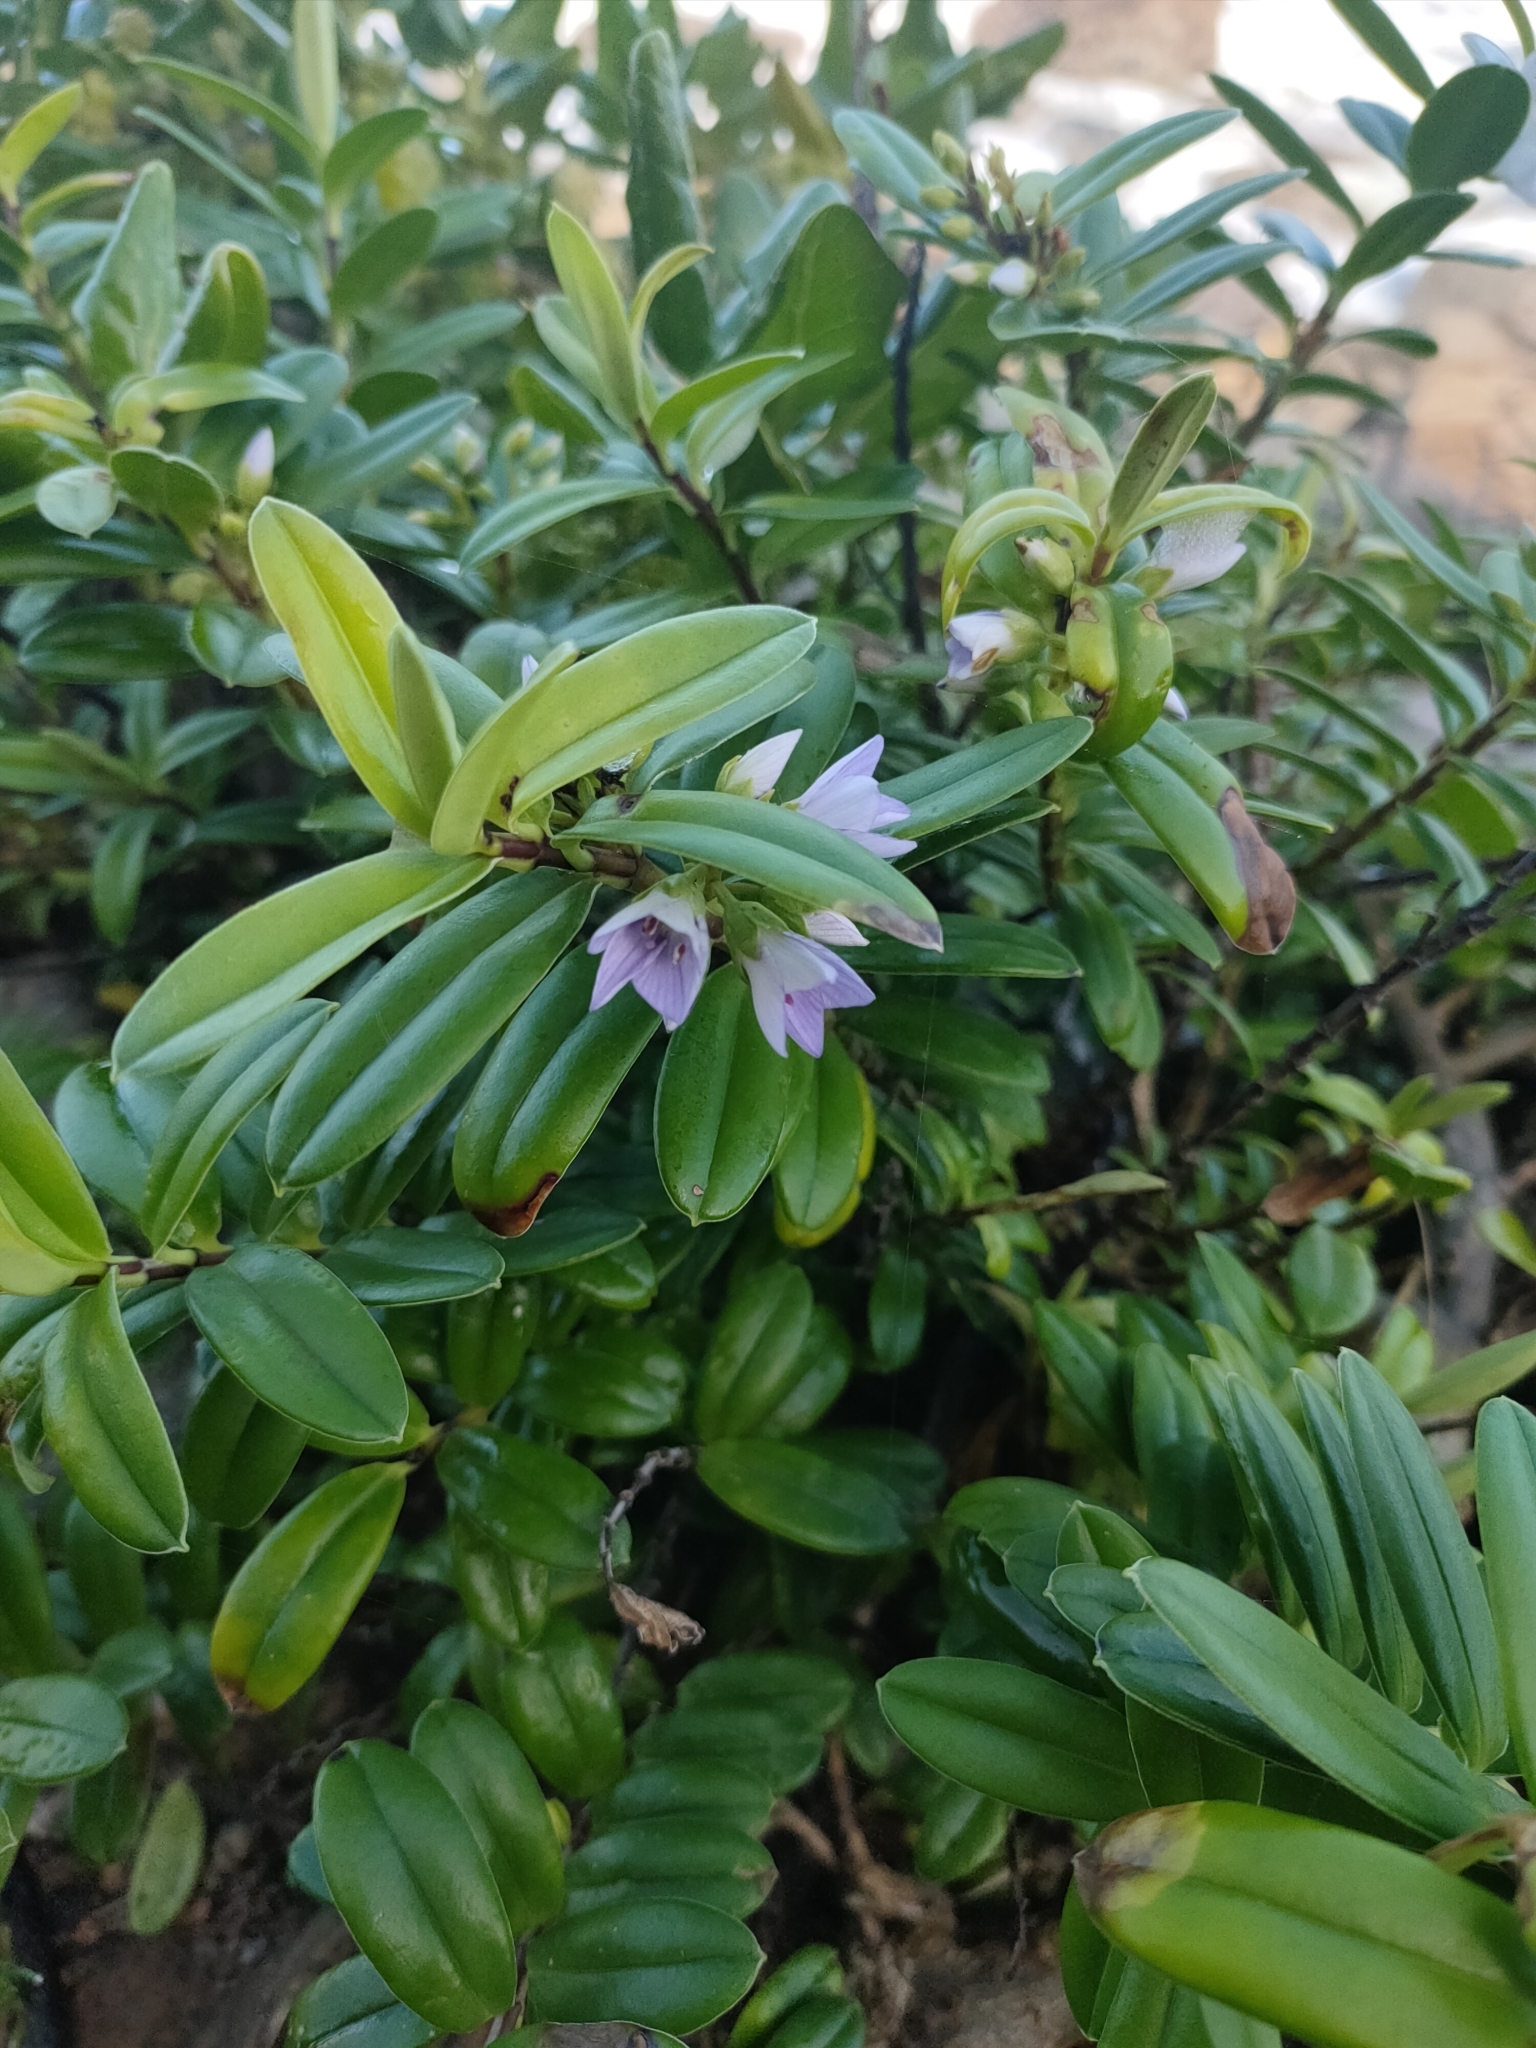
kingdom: Plantae
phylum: Tracheophyta
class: Magnoliopsida
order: Lamiales
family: Plantaginaceae
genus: Veronica
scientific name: Veronica elliptica
